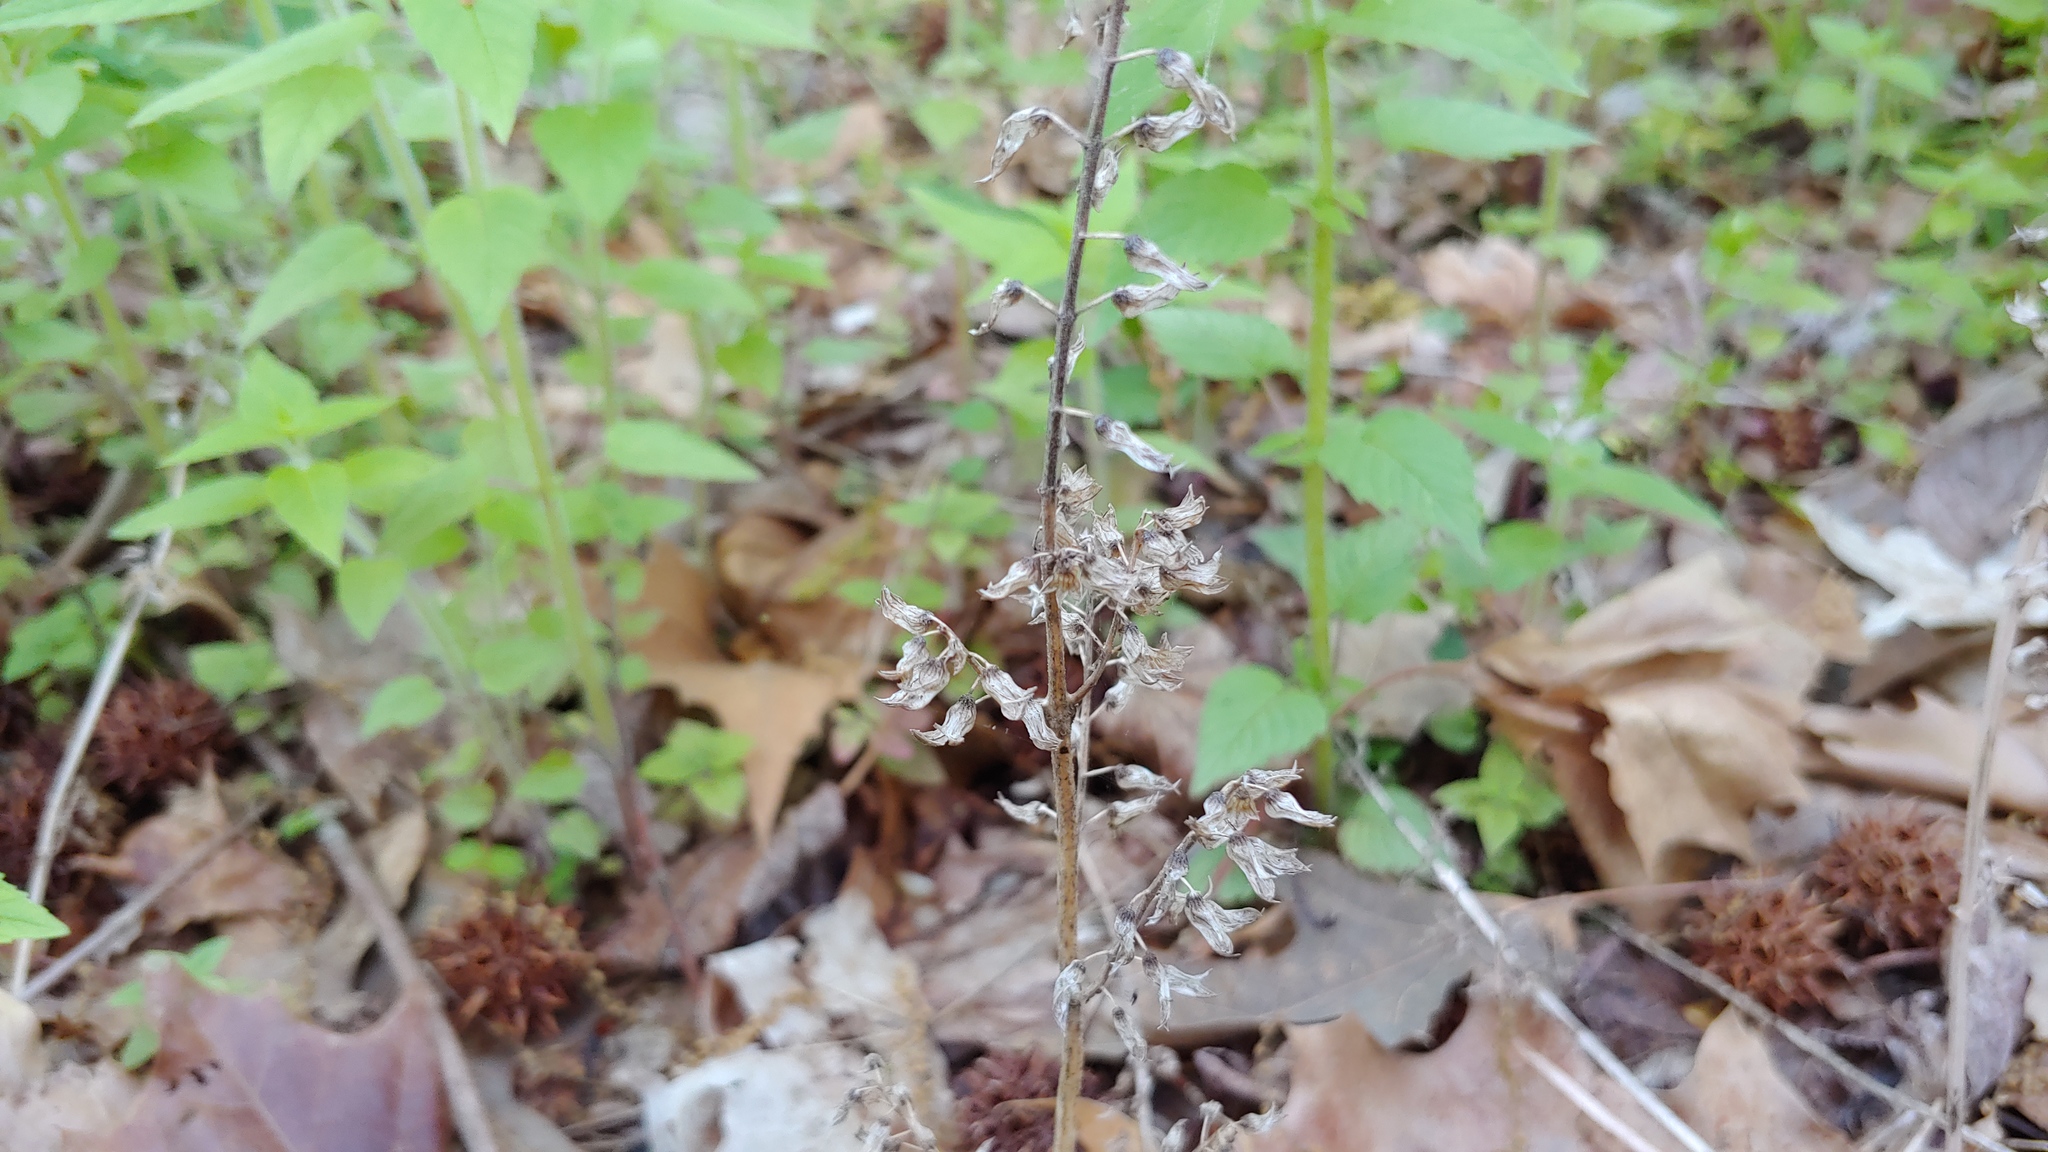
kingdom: Plantae
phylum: Tracheophyta
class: Magnoliopsida
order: Lamiales
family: Lamiaceae
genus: Perilla
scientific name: Perilla frutescens
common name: Perilla
